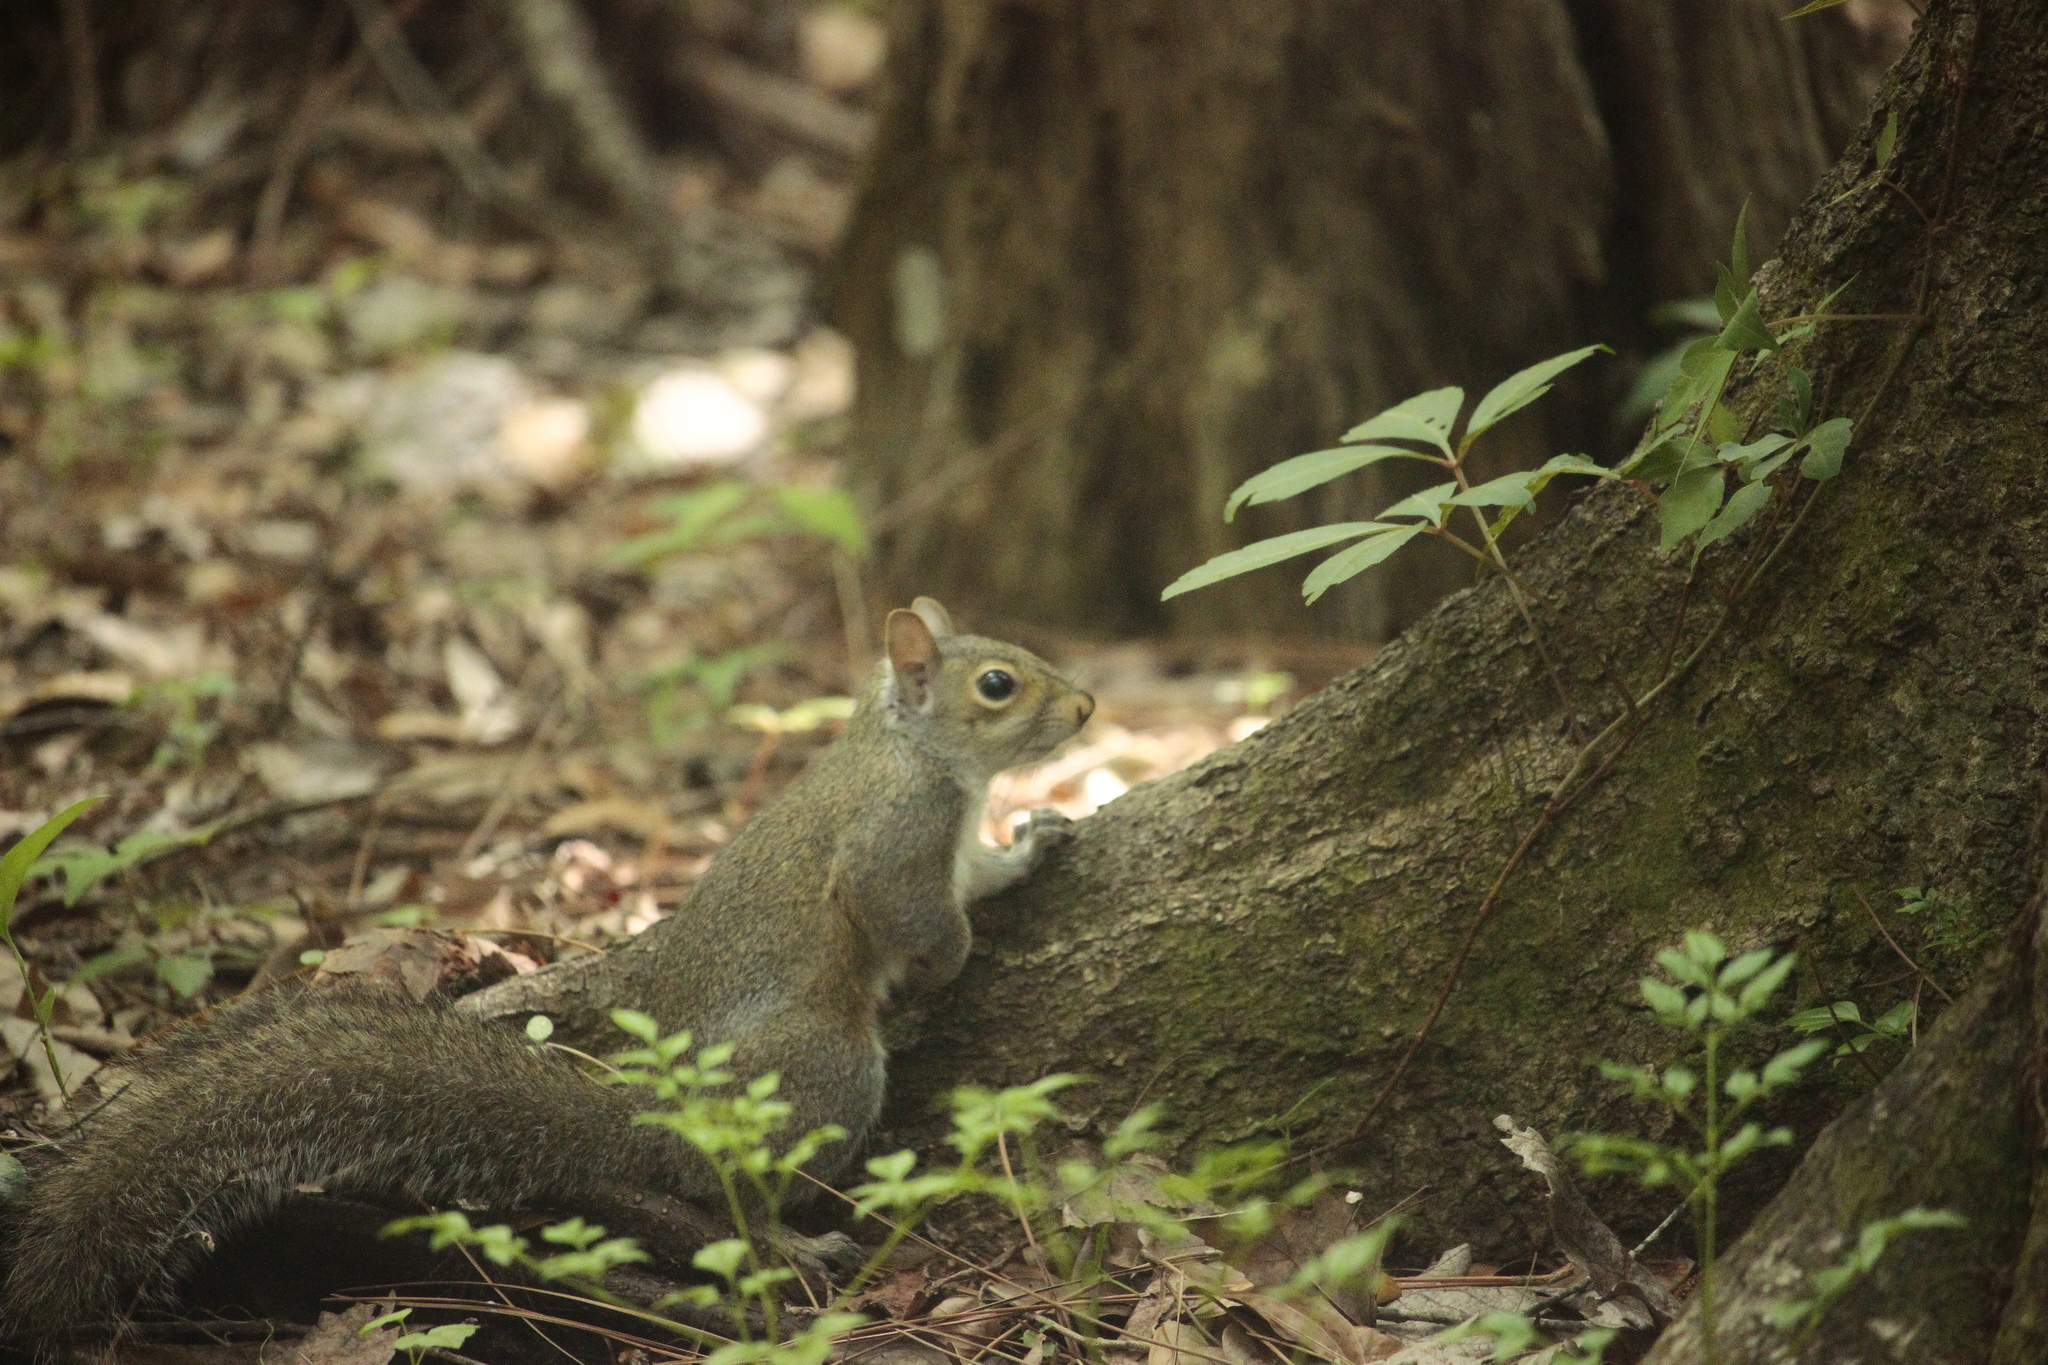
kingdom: Animalia
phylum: Chordata
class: Mammalia
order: Rodentia
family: Sciuridae
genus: Sciurus
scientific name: Sciurus carolinensis
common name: Eastern gray squirrel
